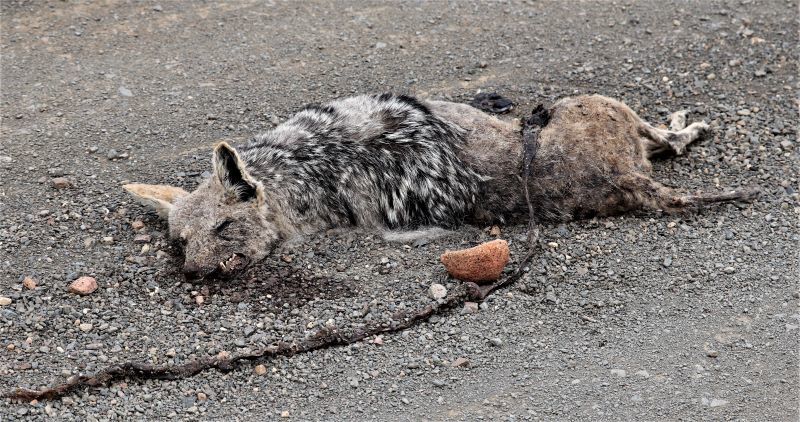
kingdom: Animalia
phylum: Chordata
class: Mammalia
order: Carnivora
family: Canidae
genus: Lupulella
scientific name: Lupulella
